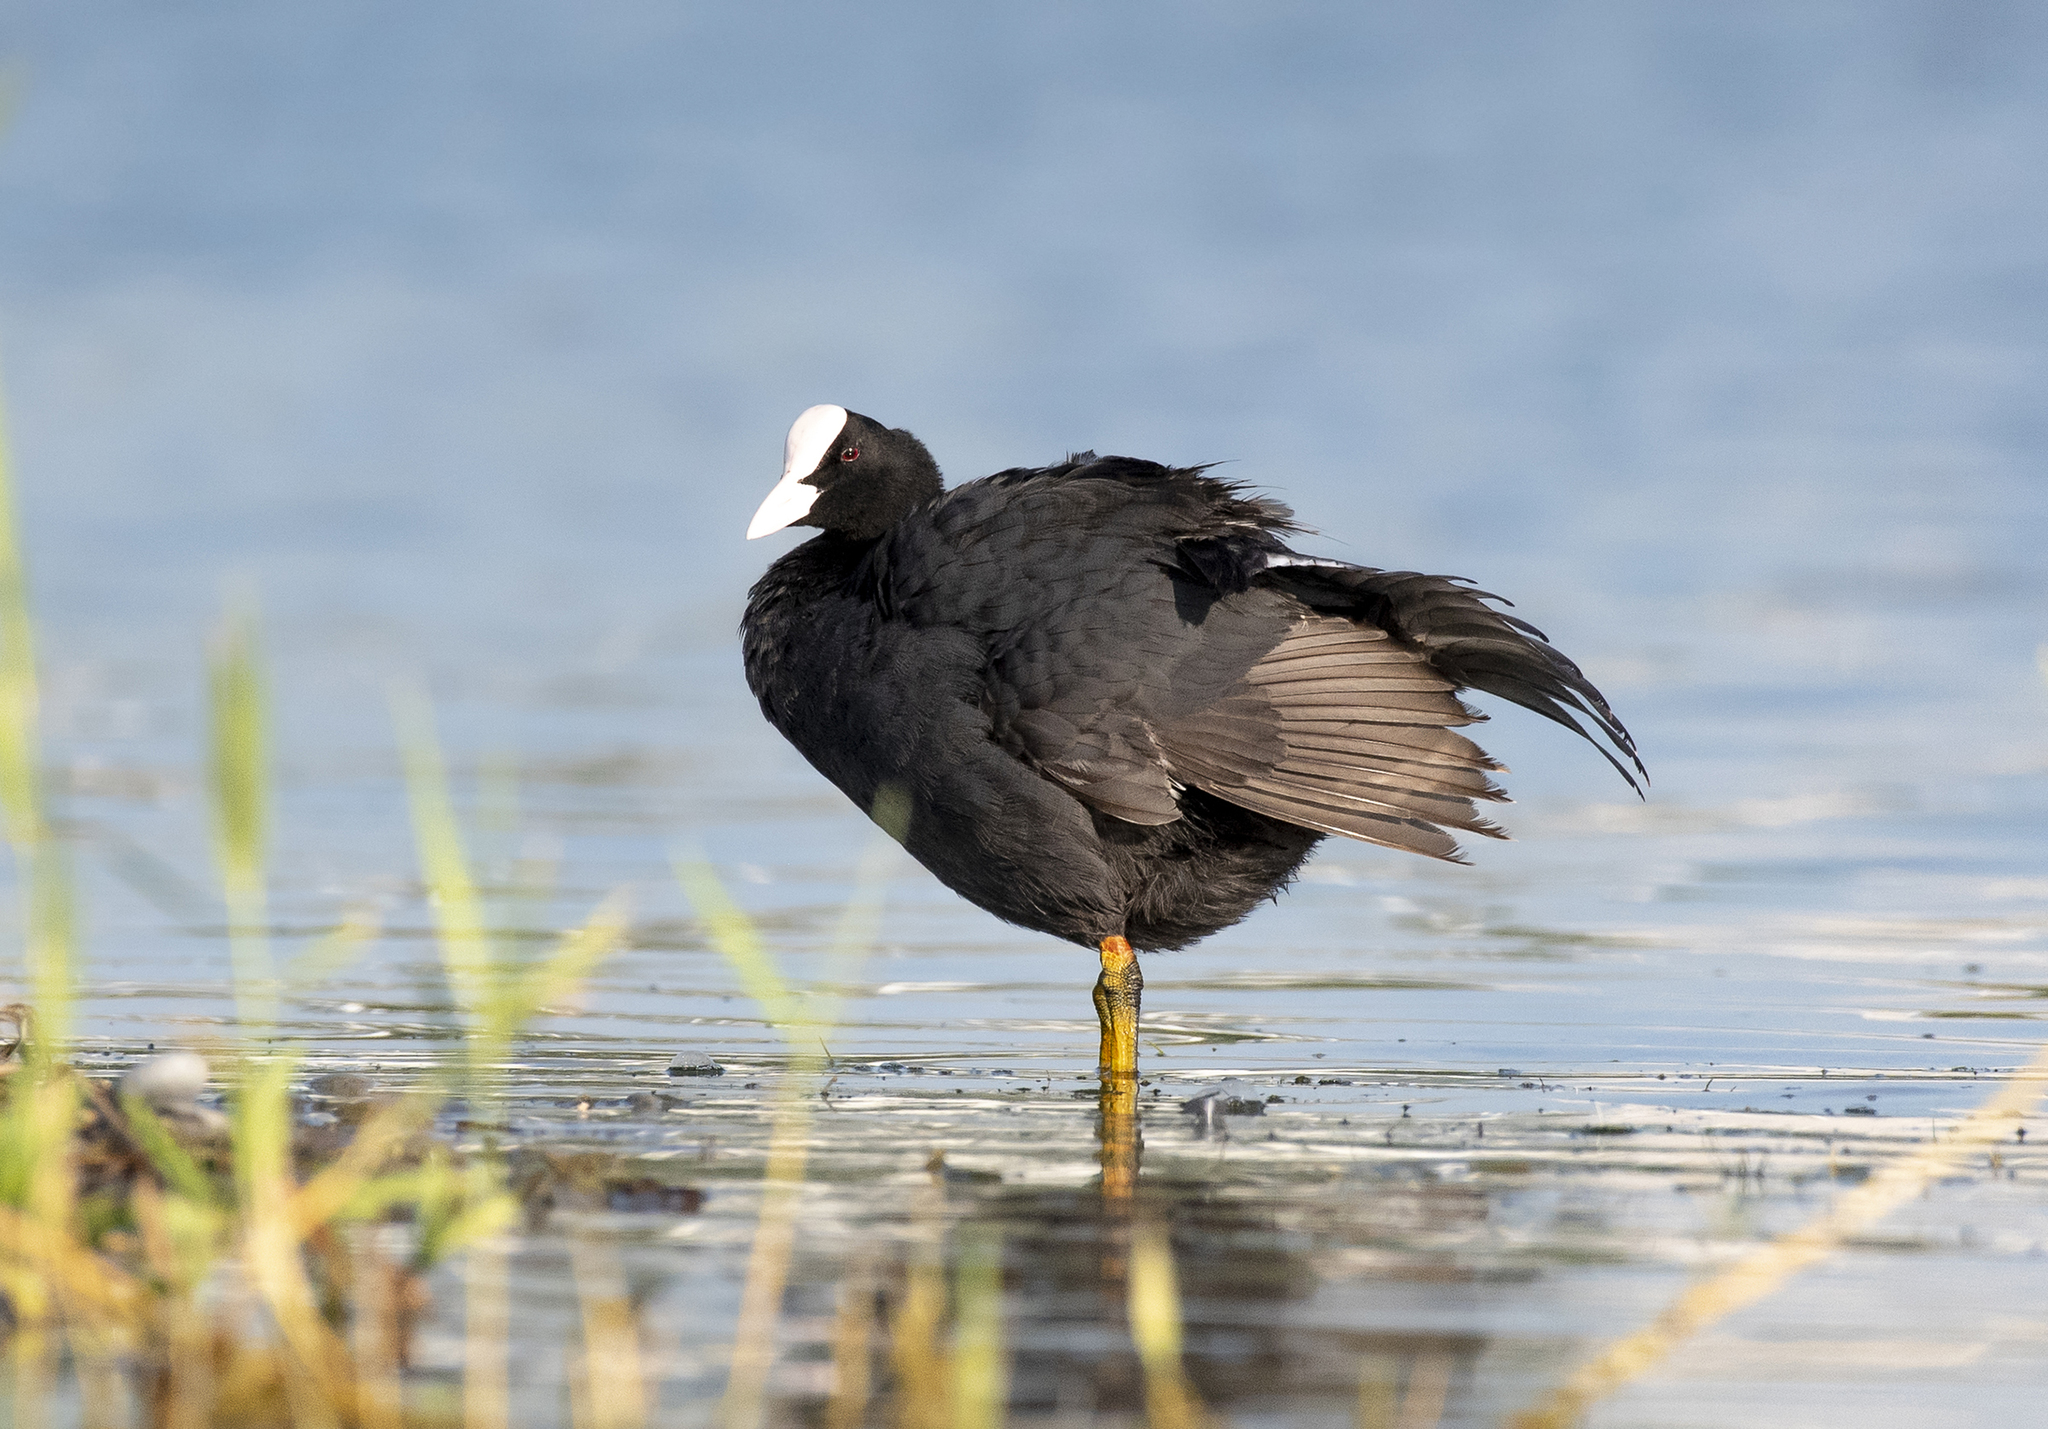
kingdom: Animalia
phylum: Chordata
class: Aves
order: Gruiformes
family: Rallidae
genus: Fulica
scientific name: Fulica atra
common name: Eurasian coot
